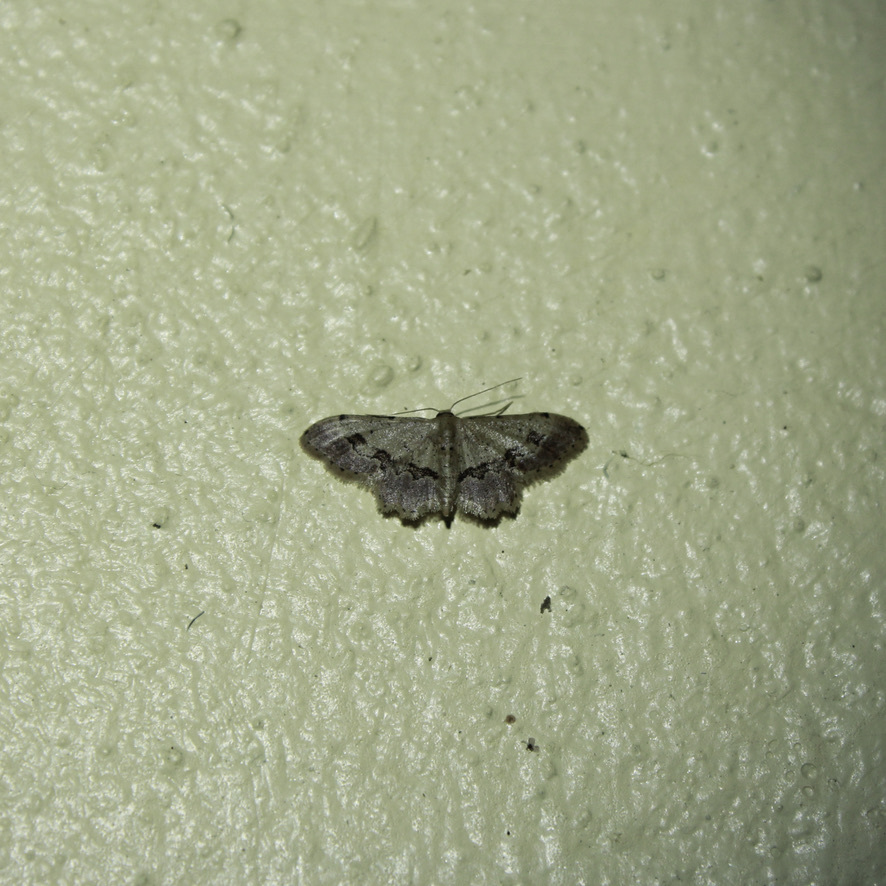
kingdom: Animalia
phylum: Arthropoda
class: Insecta
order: Lepidoptera
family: Geometridae
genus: Idaea
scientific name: Idaea gospera
